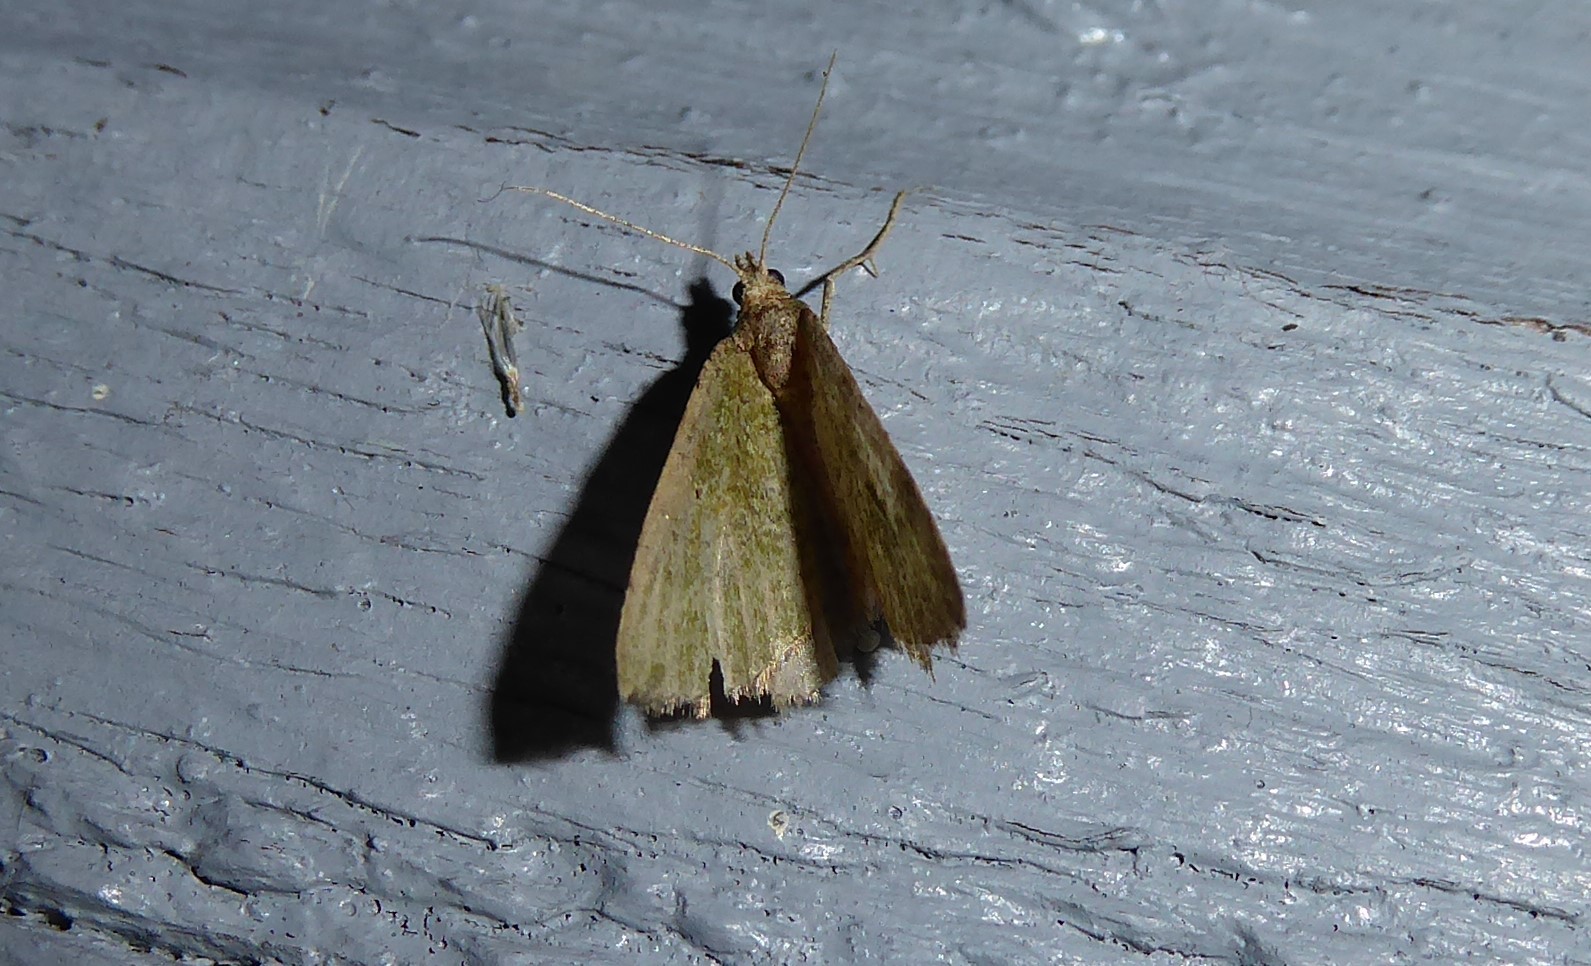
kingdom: Animalia
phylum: Arthropoda
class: Insecta
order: Lepidoptera
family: Geometridae
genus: Epyaxa
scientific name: Epyaxa rosearia
